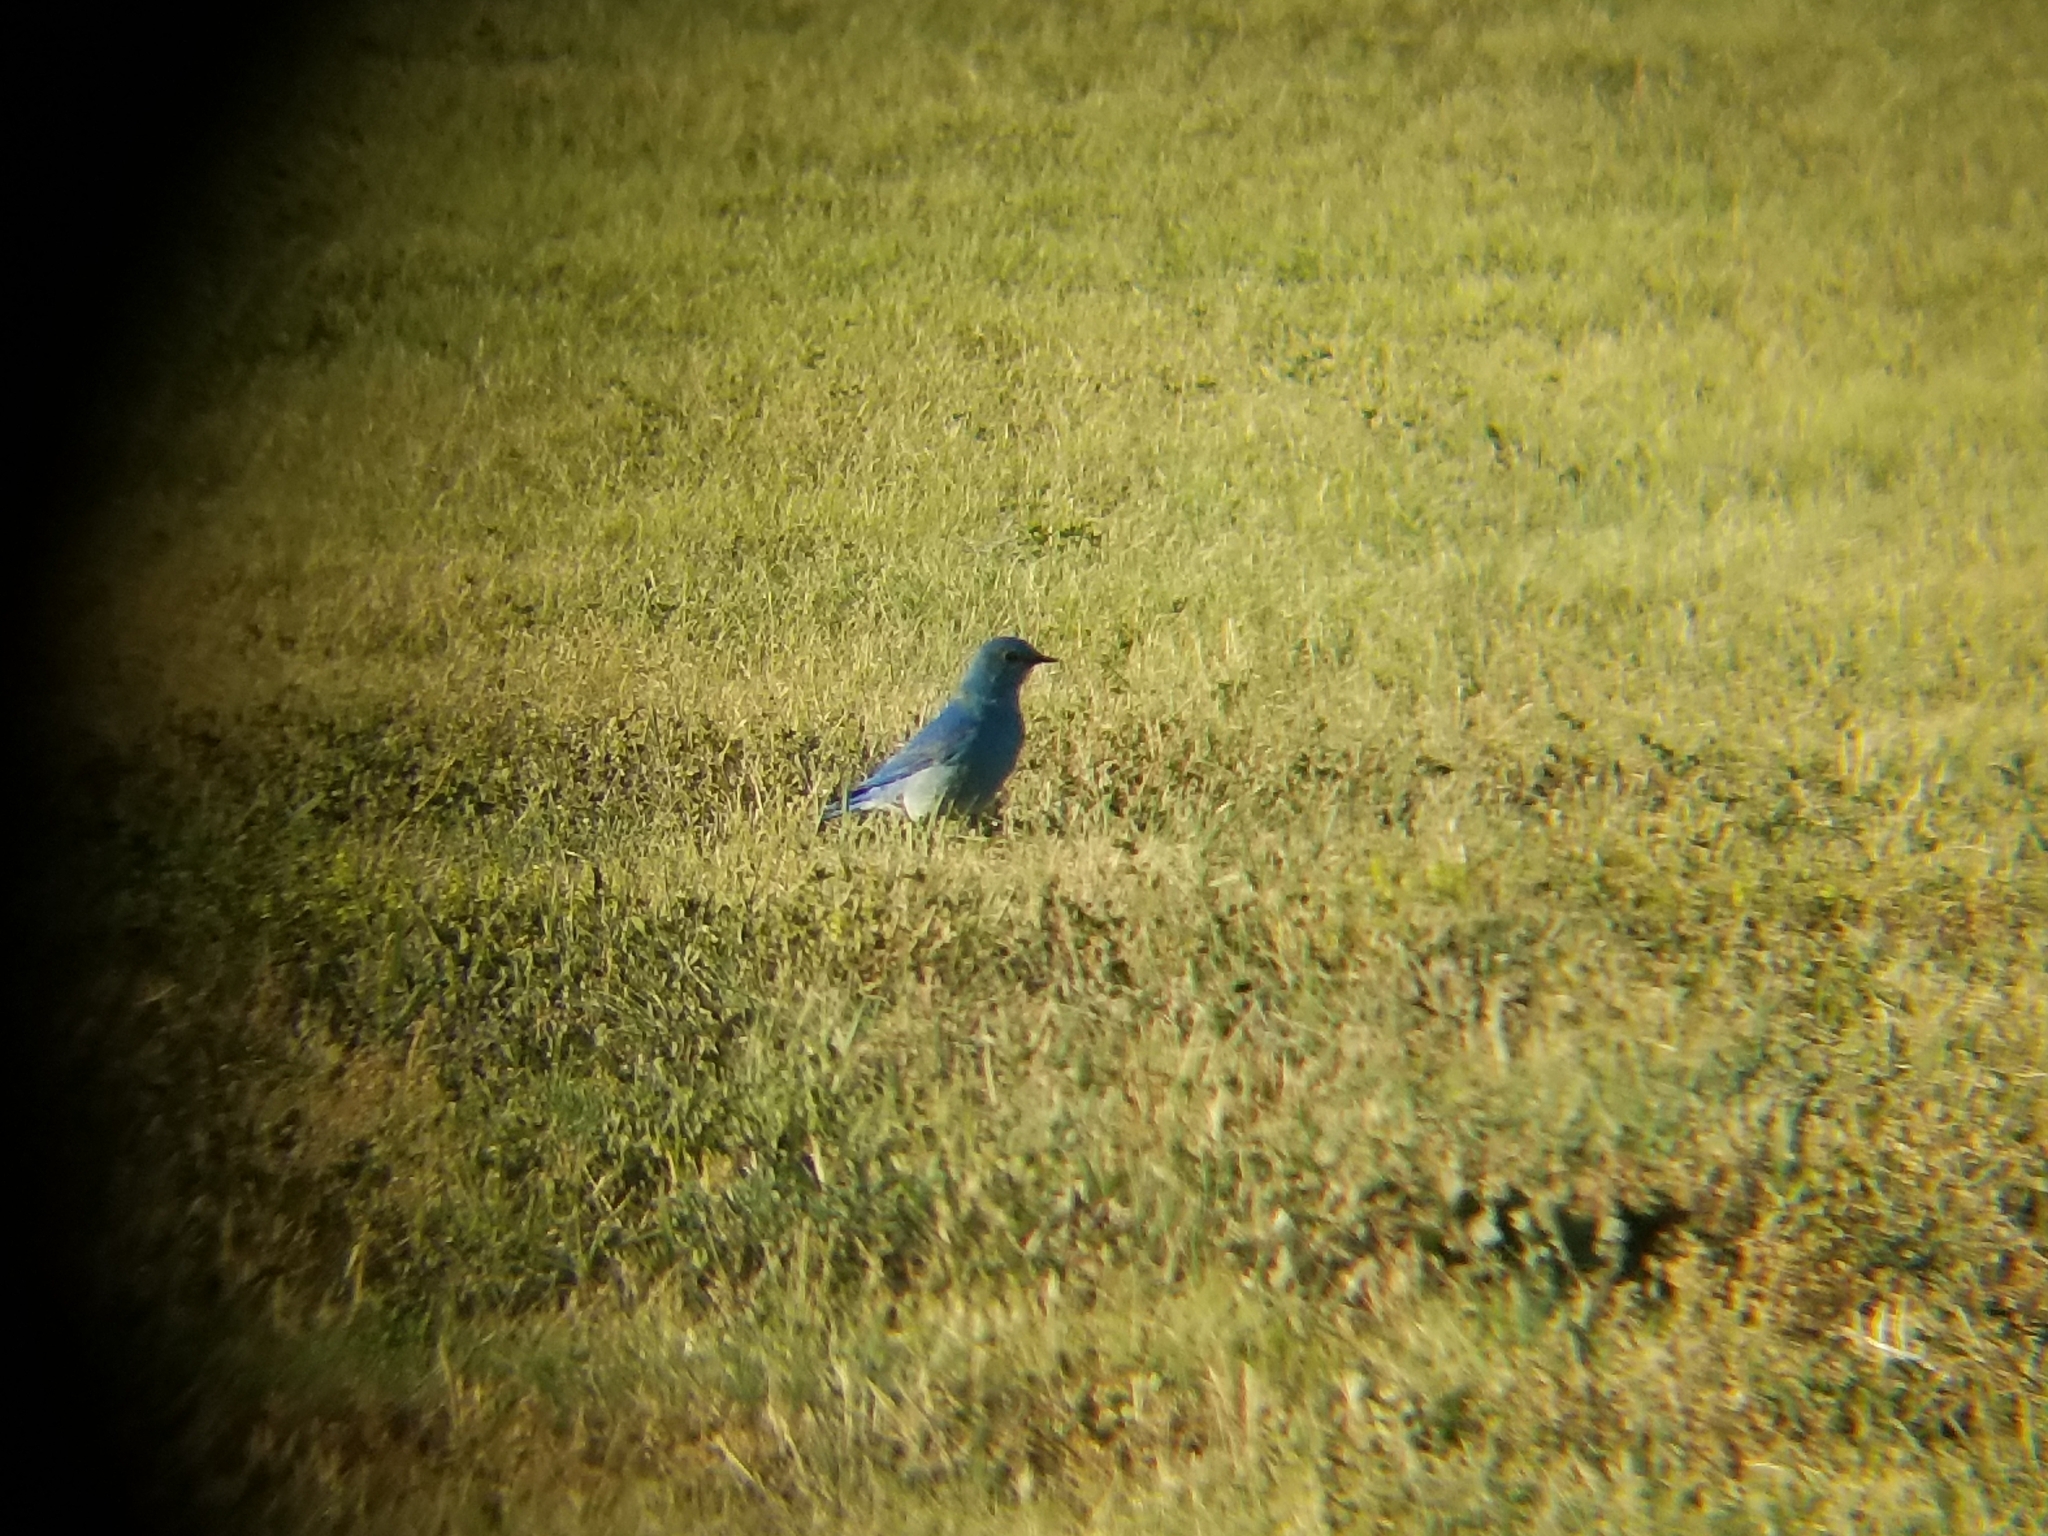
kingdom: Animalia
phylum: Chordata
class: Aves
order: Passeriformes
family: Turdidae
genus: Sialia
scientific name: Sialia currucoides
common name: Mountain bluebird
